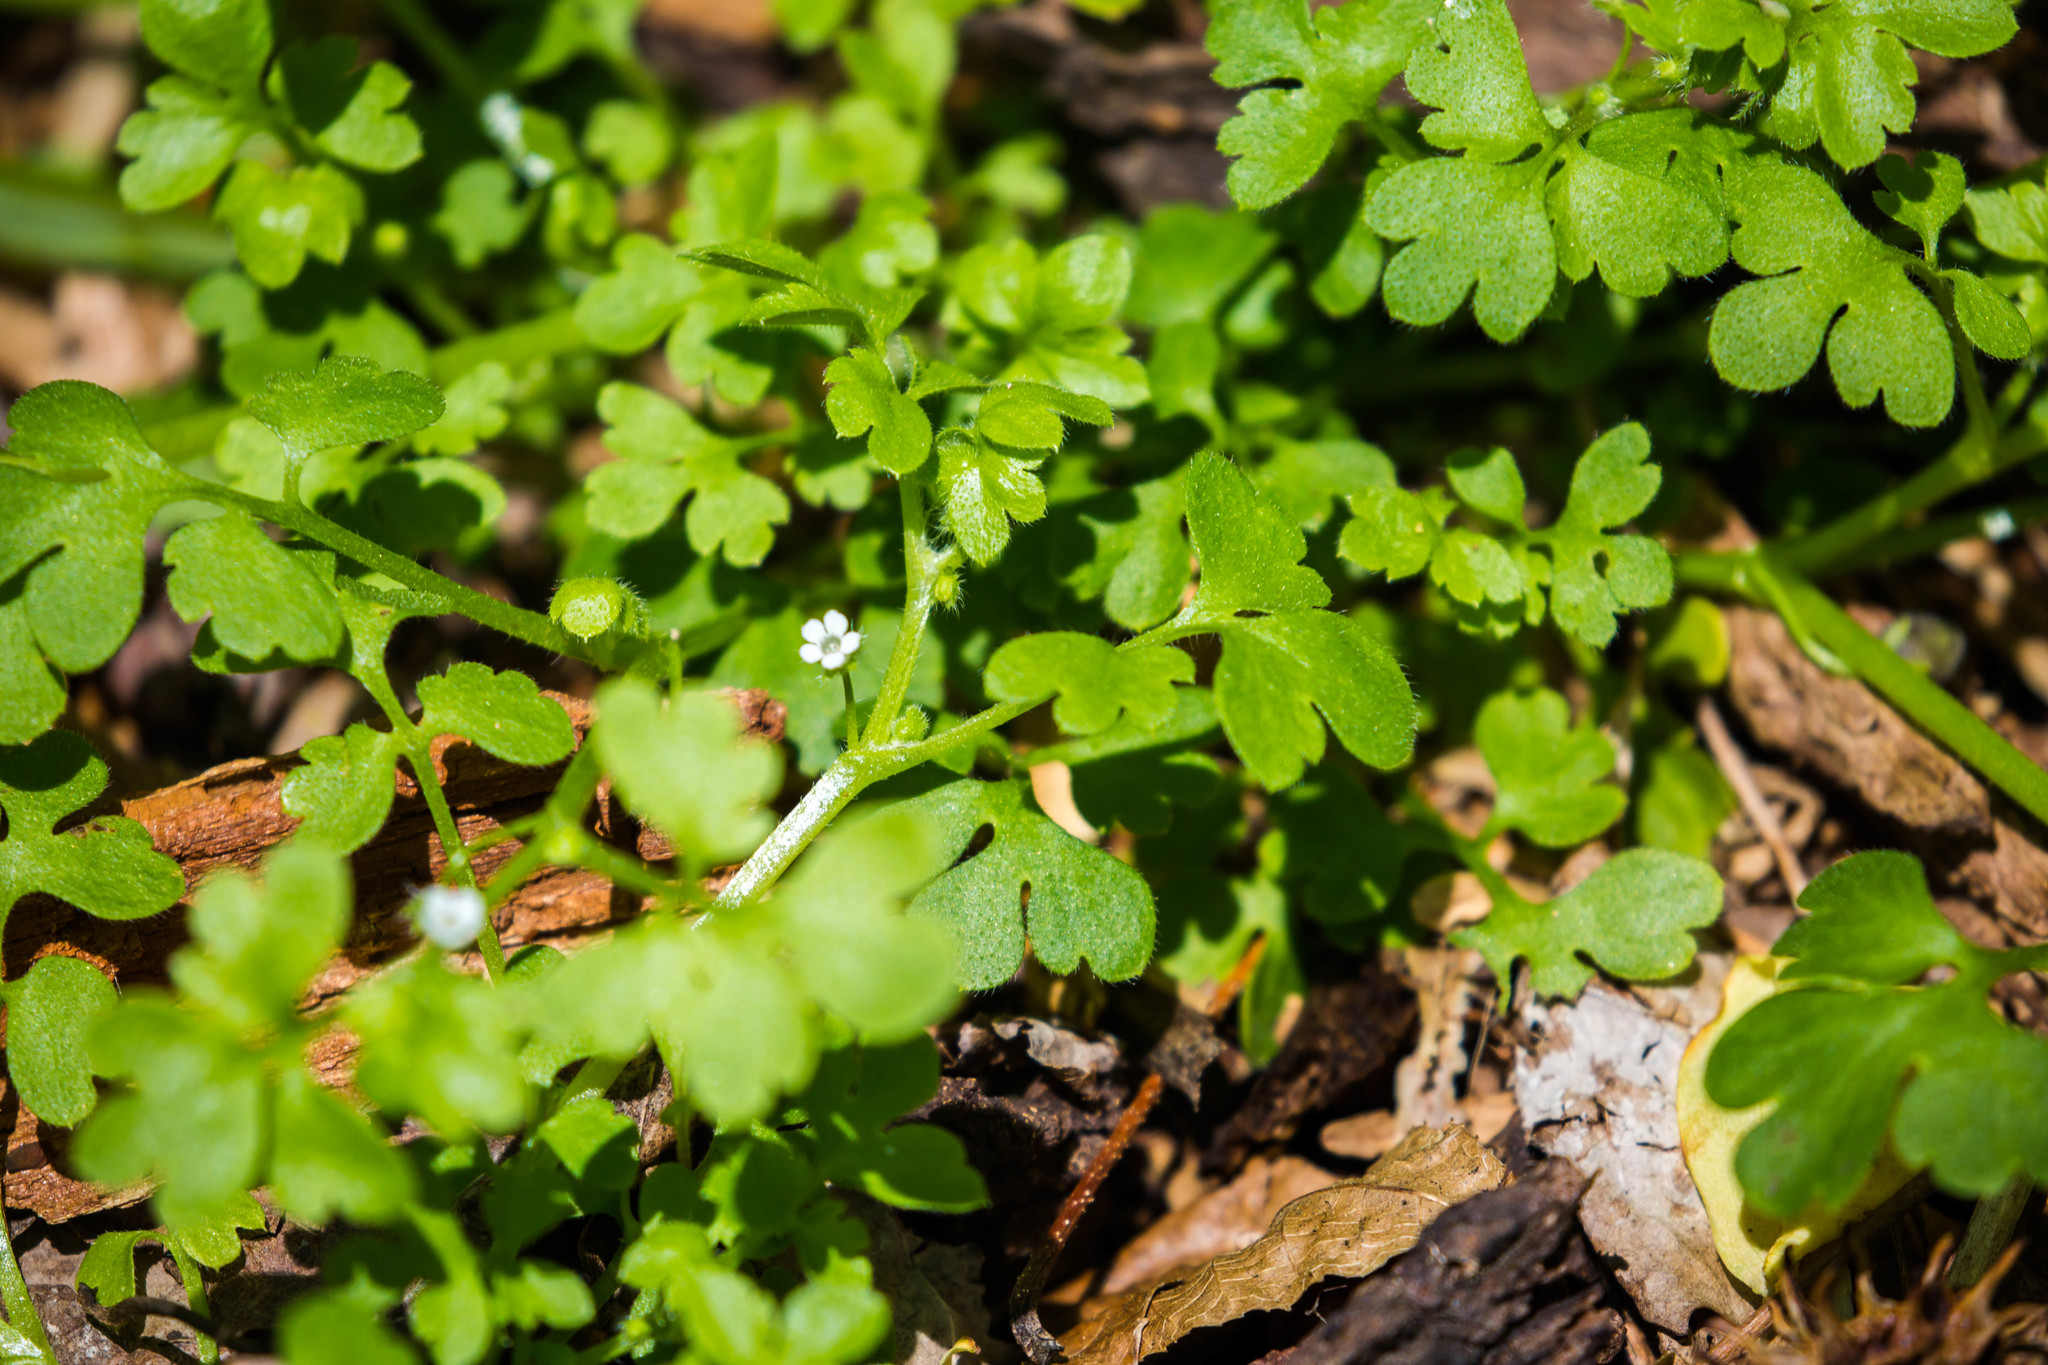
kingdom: Plantae
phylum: Tracheophyta
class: Magnoliopsida
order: Boraginales
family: Hydrophyllaceae
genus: Nemophila
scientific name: Nemophila aphylla
